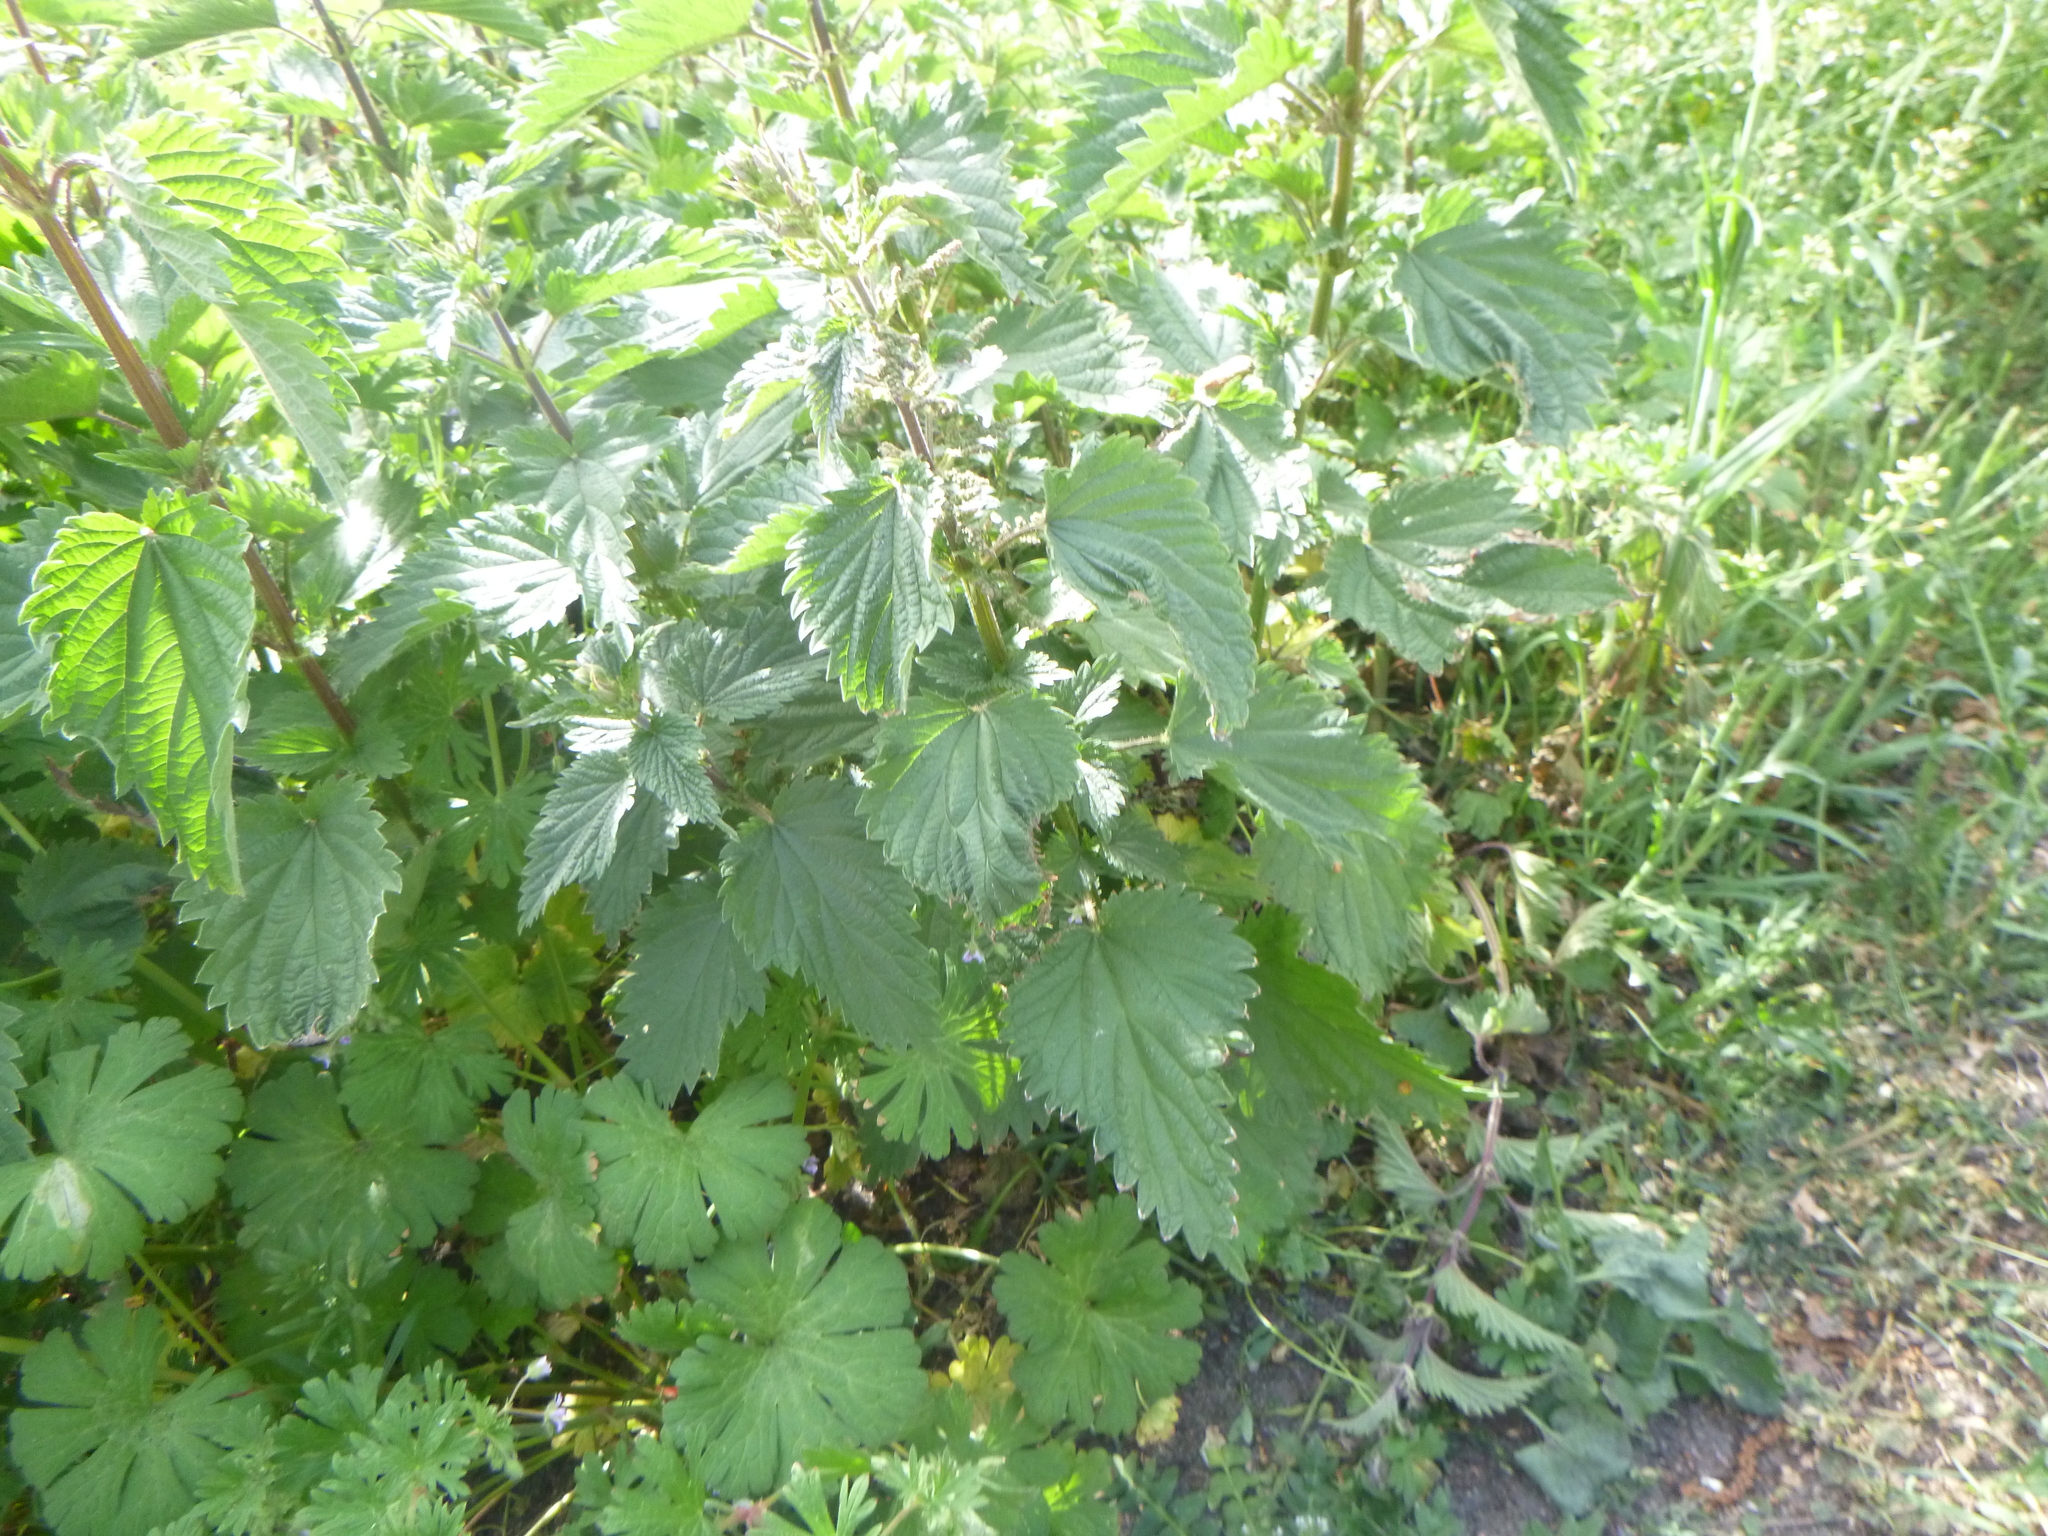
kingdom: Plantae
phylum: Tracheophyta
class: Magnoliopsida
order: Rosales
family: Urticaceae
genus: Urtica
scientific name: Urtica dioica
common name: Common nettle
